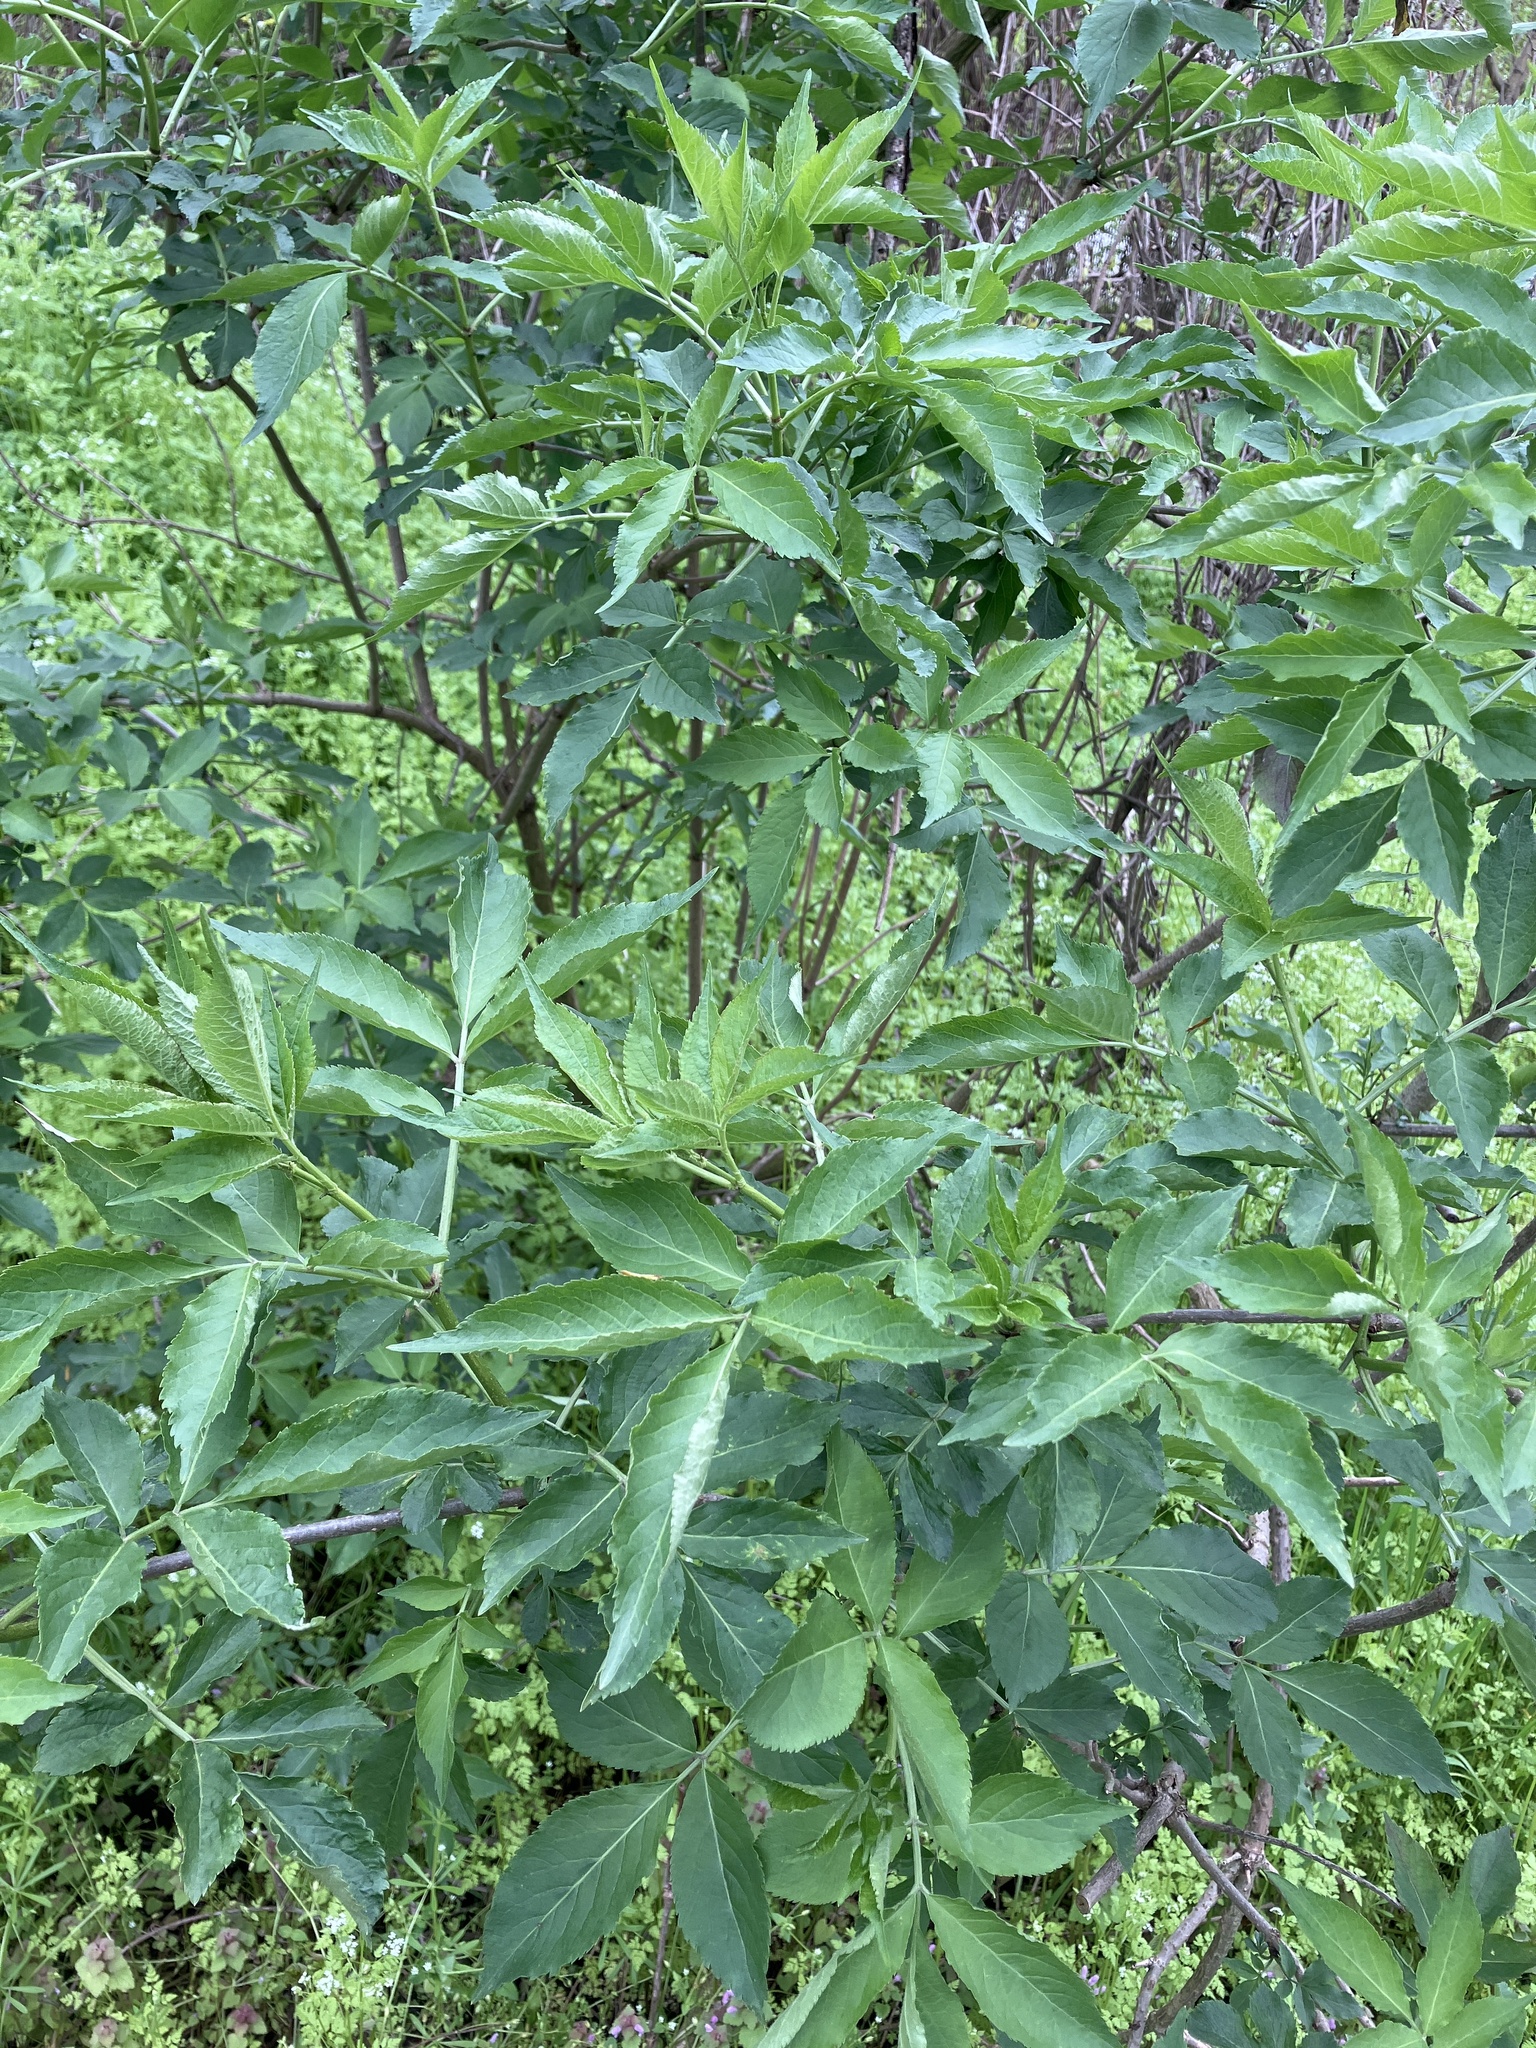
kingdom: Plantae
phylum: Tracheophyta
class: Magnoliopsida
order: Dipsacales
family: Viburnaceae
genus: Sambucus
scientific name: Sambucus nigra
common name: Elder
